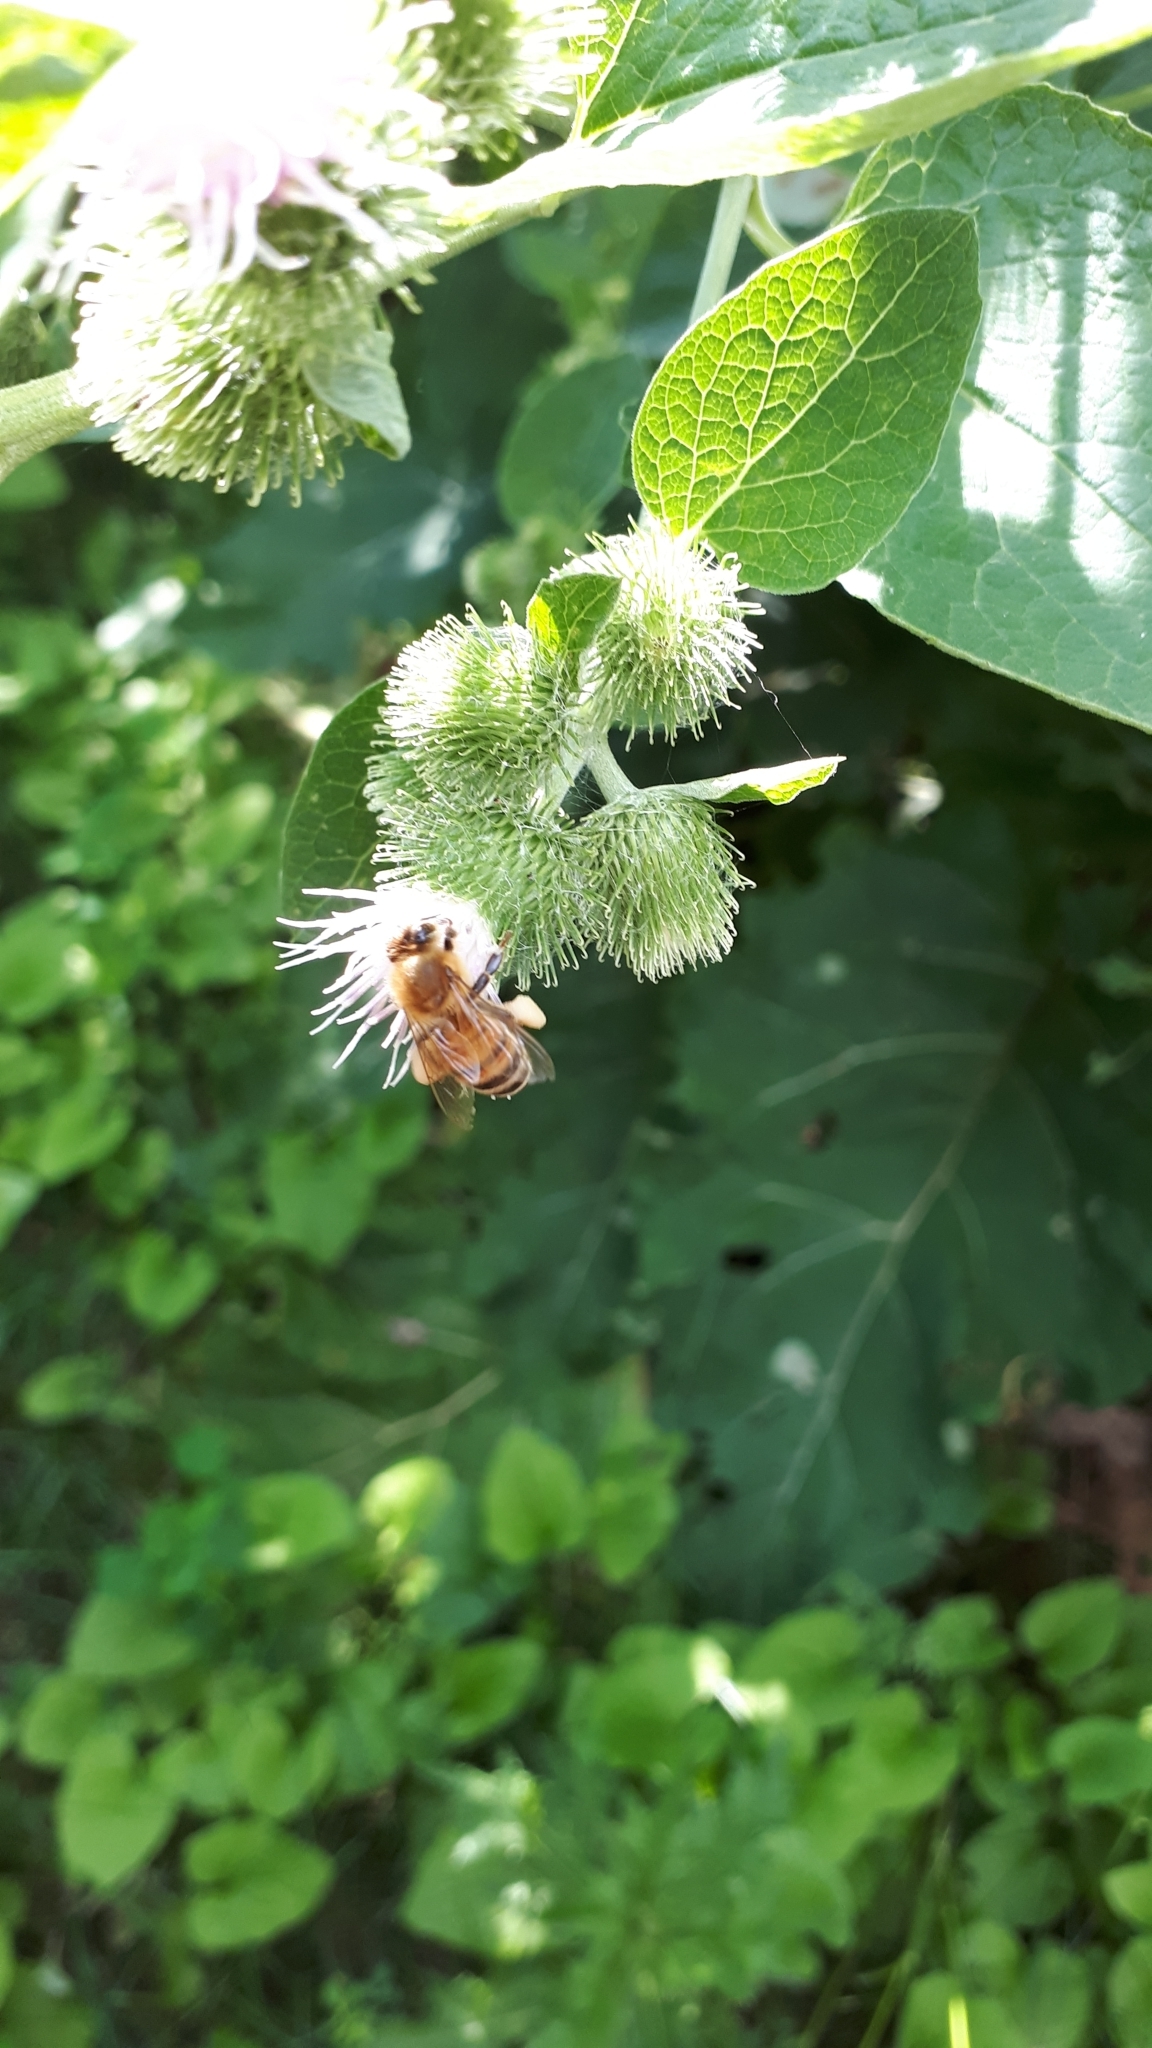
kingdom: Animalia
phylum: Arthropoda
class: Insecta
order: Hymenoptera
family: Apidae
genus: Apis
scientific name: Apis mellifera
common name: Honey bee
